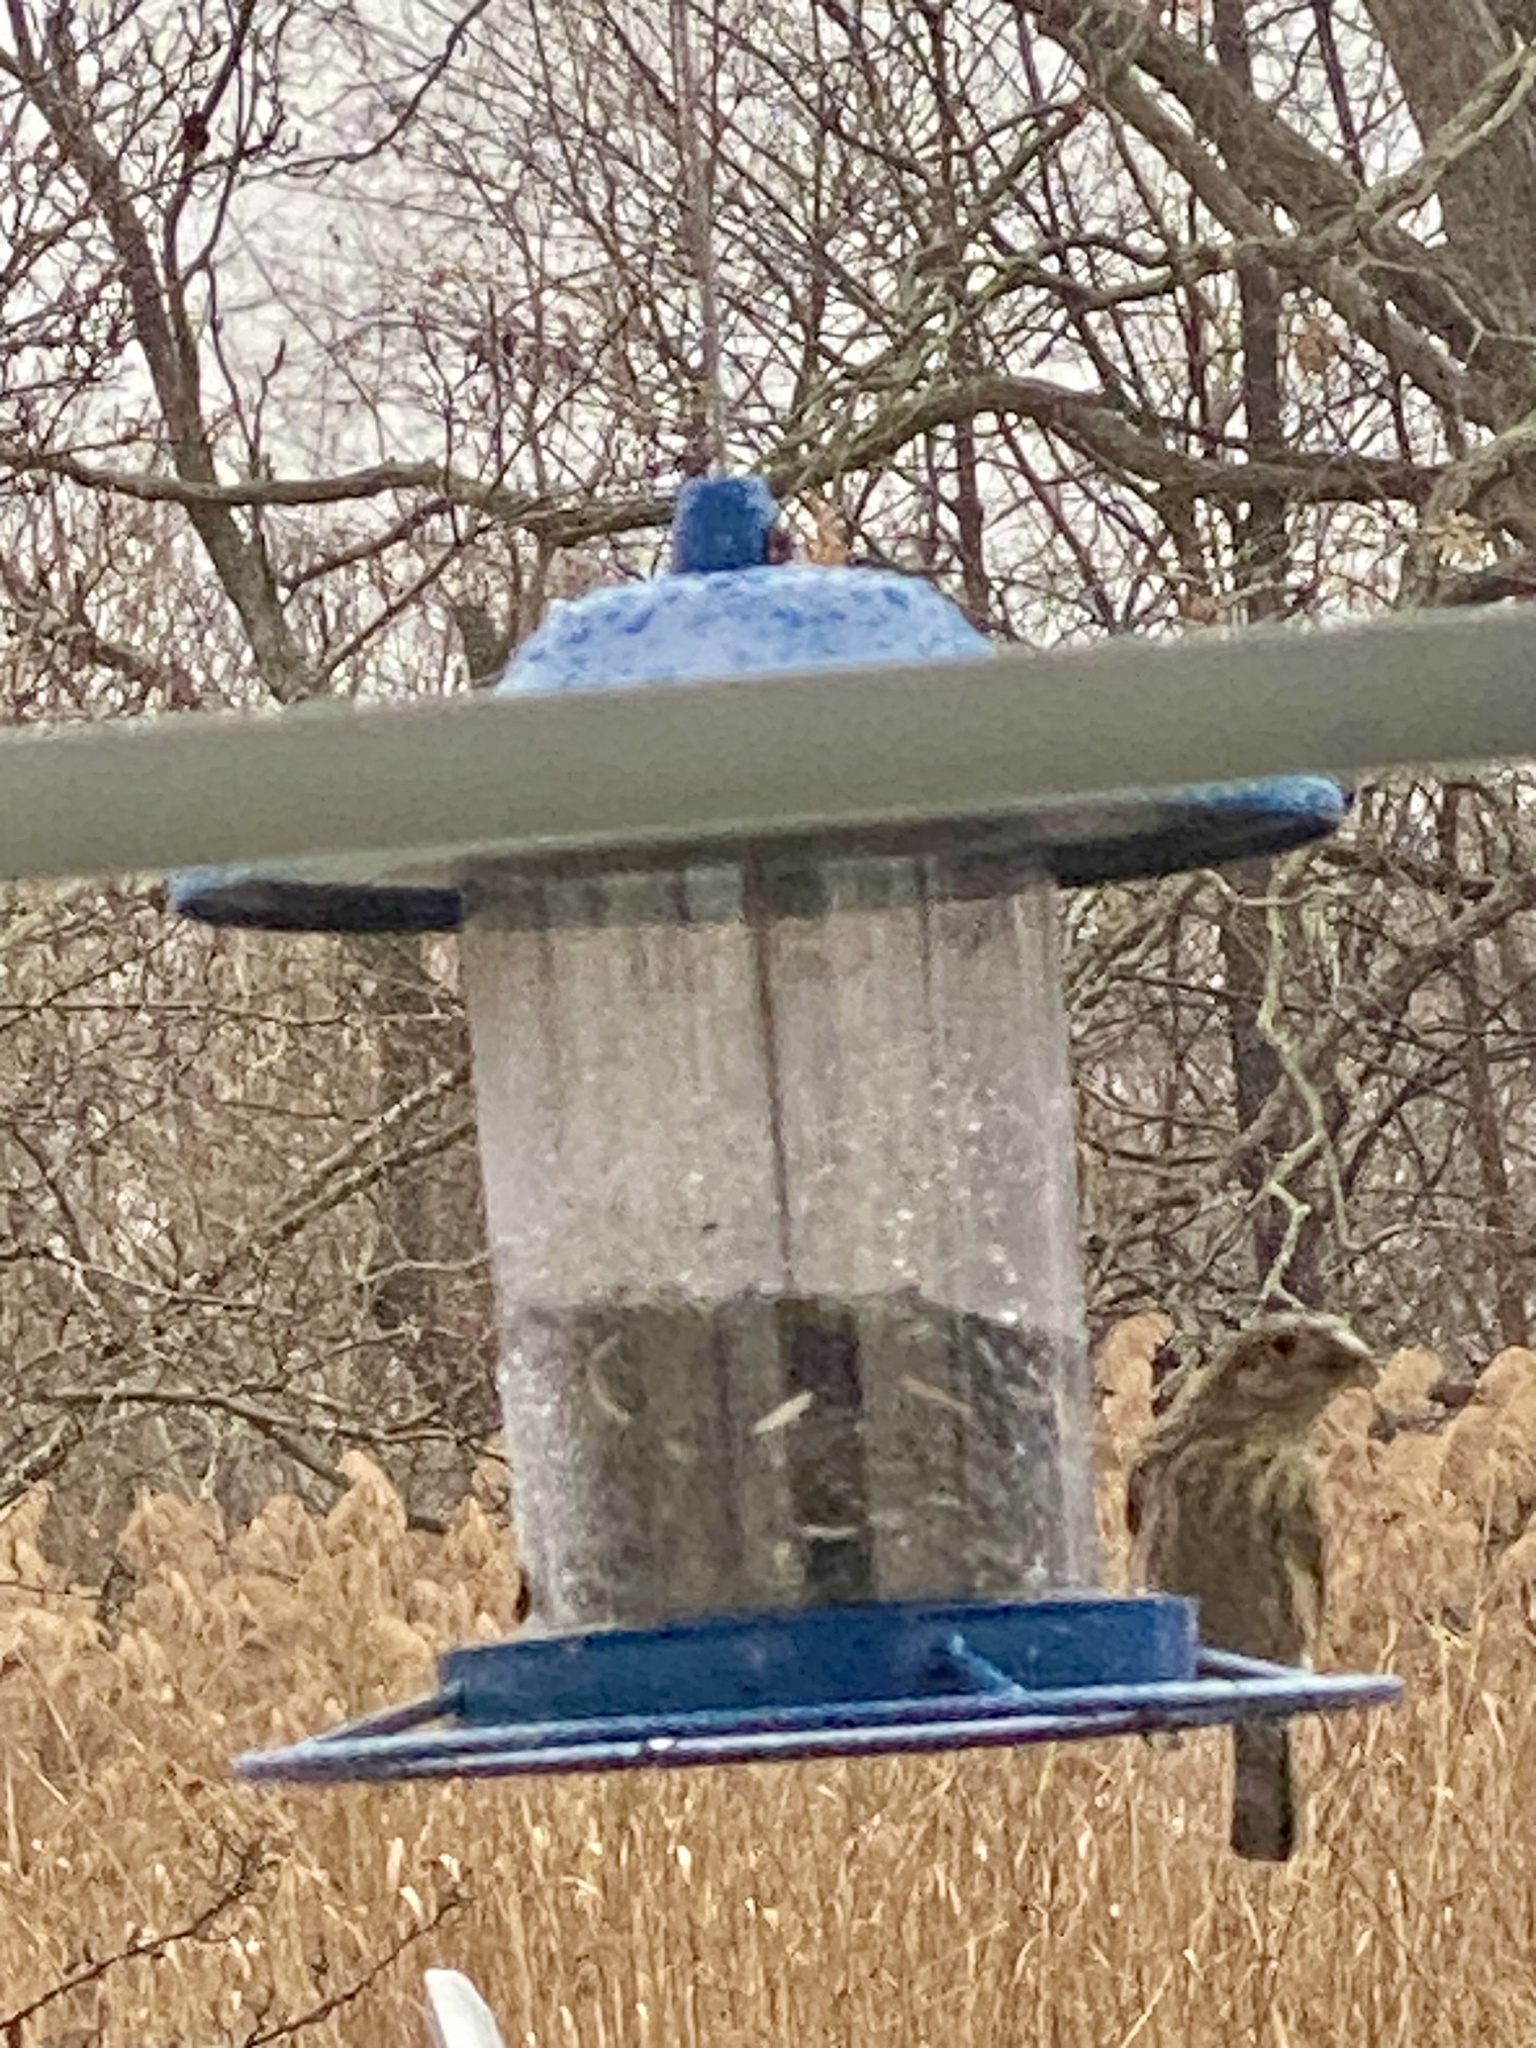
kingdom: Animalia
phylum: Chordata
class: Aves
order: Passeriformes
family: Fringillidae
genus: Haemorhous
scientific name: Haemorhous mexicanus
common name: House finch
